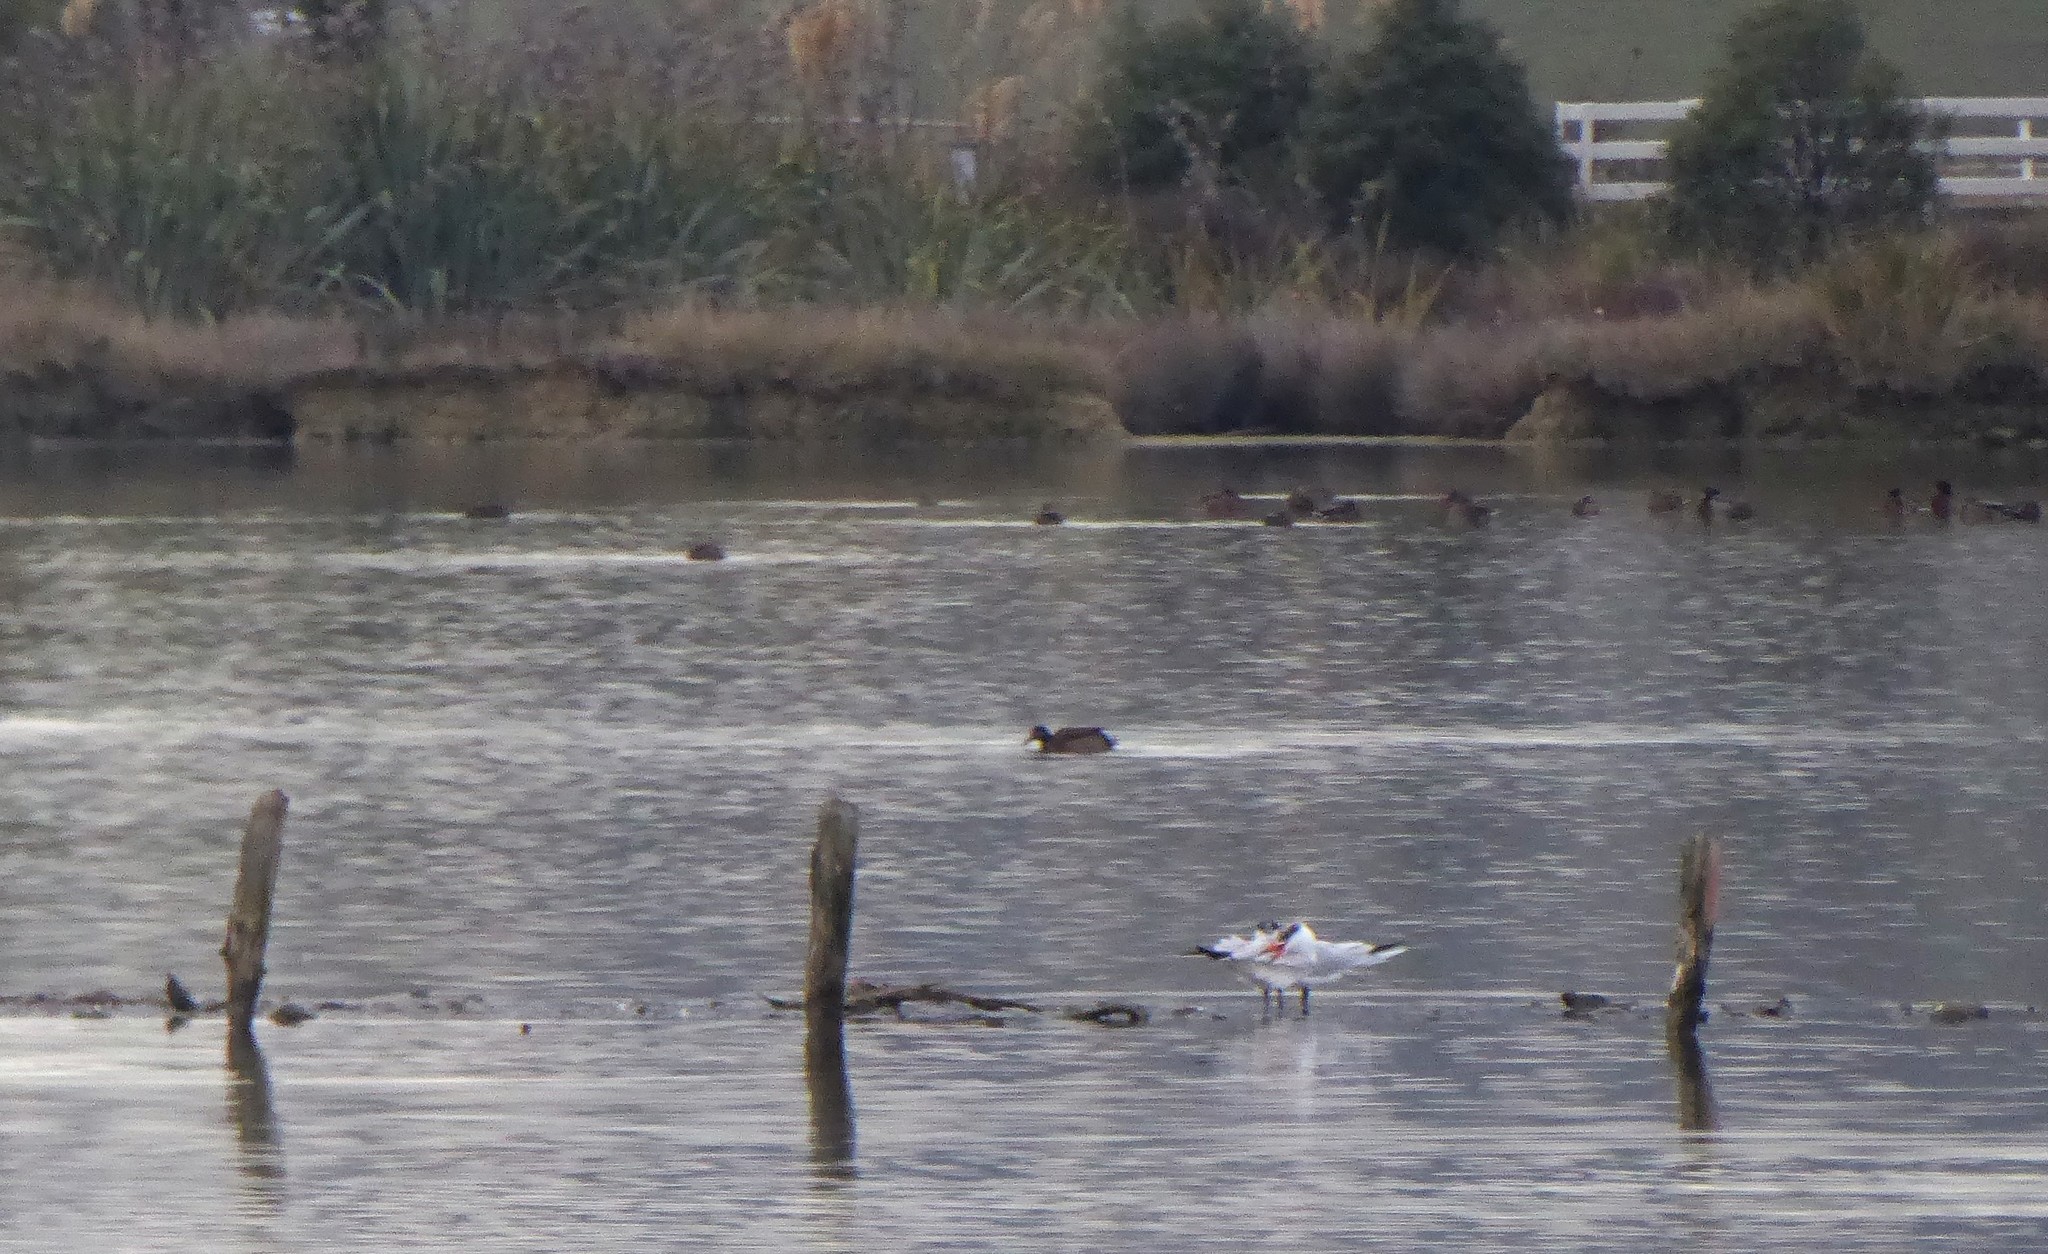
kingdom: Animalia
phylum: Chordata
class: Aves
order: Charadriiformes
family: Laridae
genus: Hydroprogne
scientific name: Hydroprogne caspia
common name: Caspian tern
